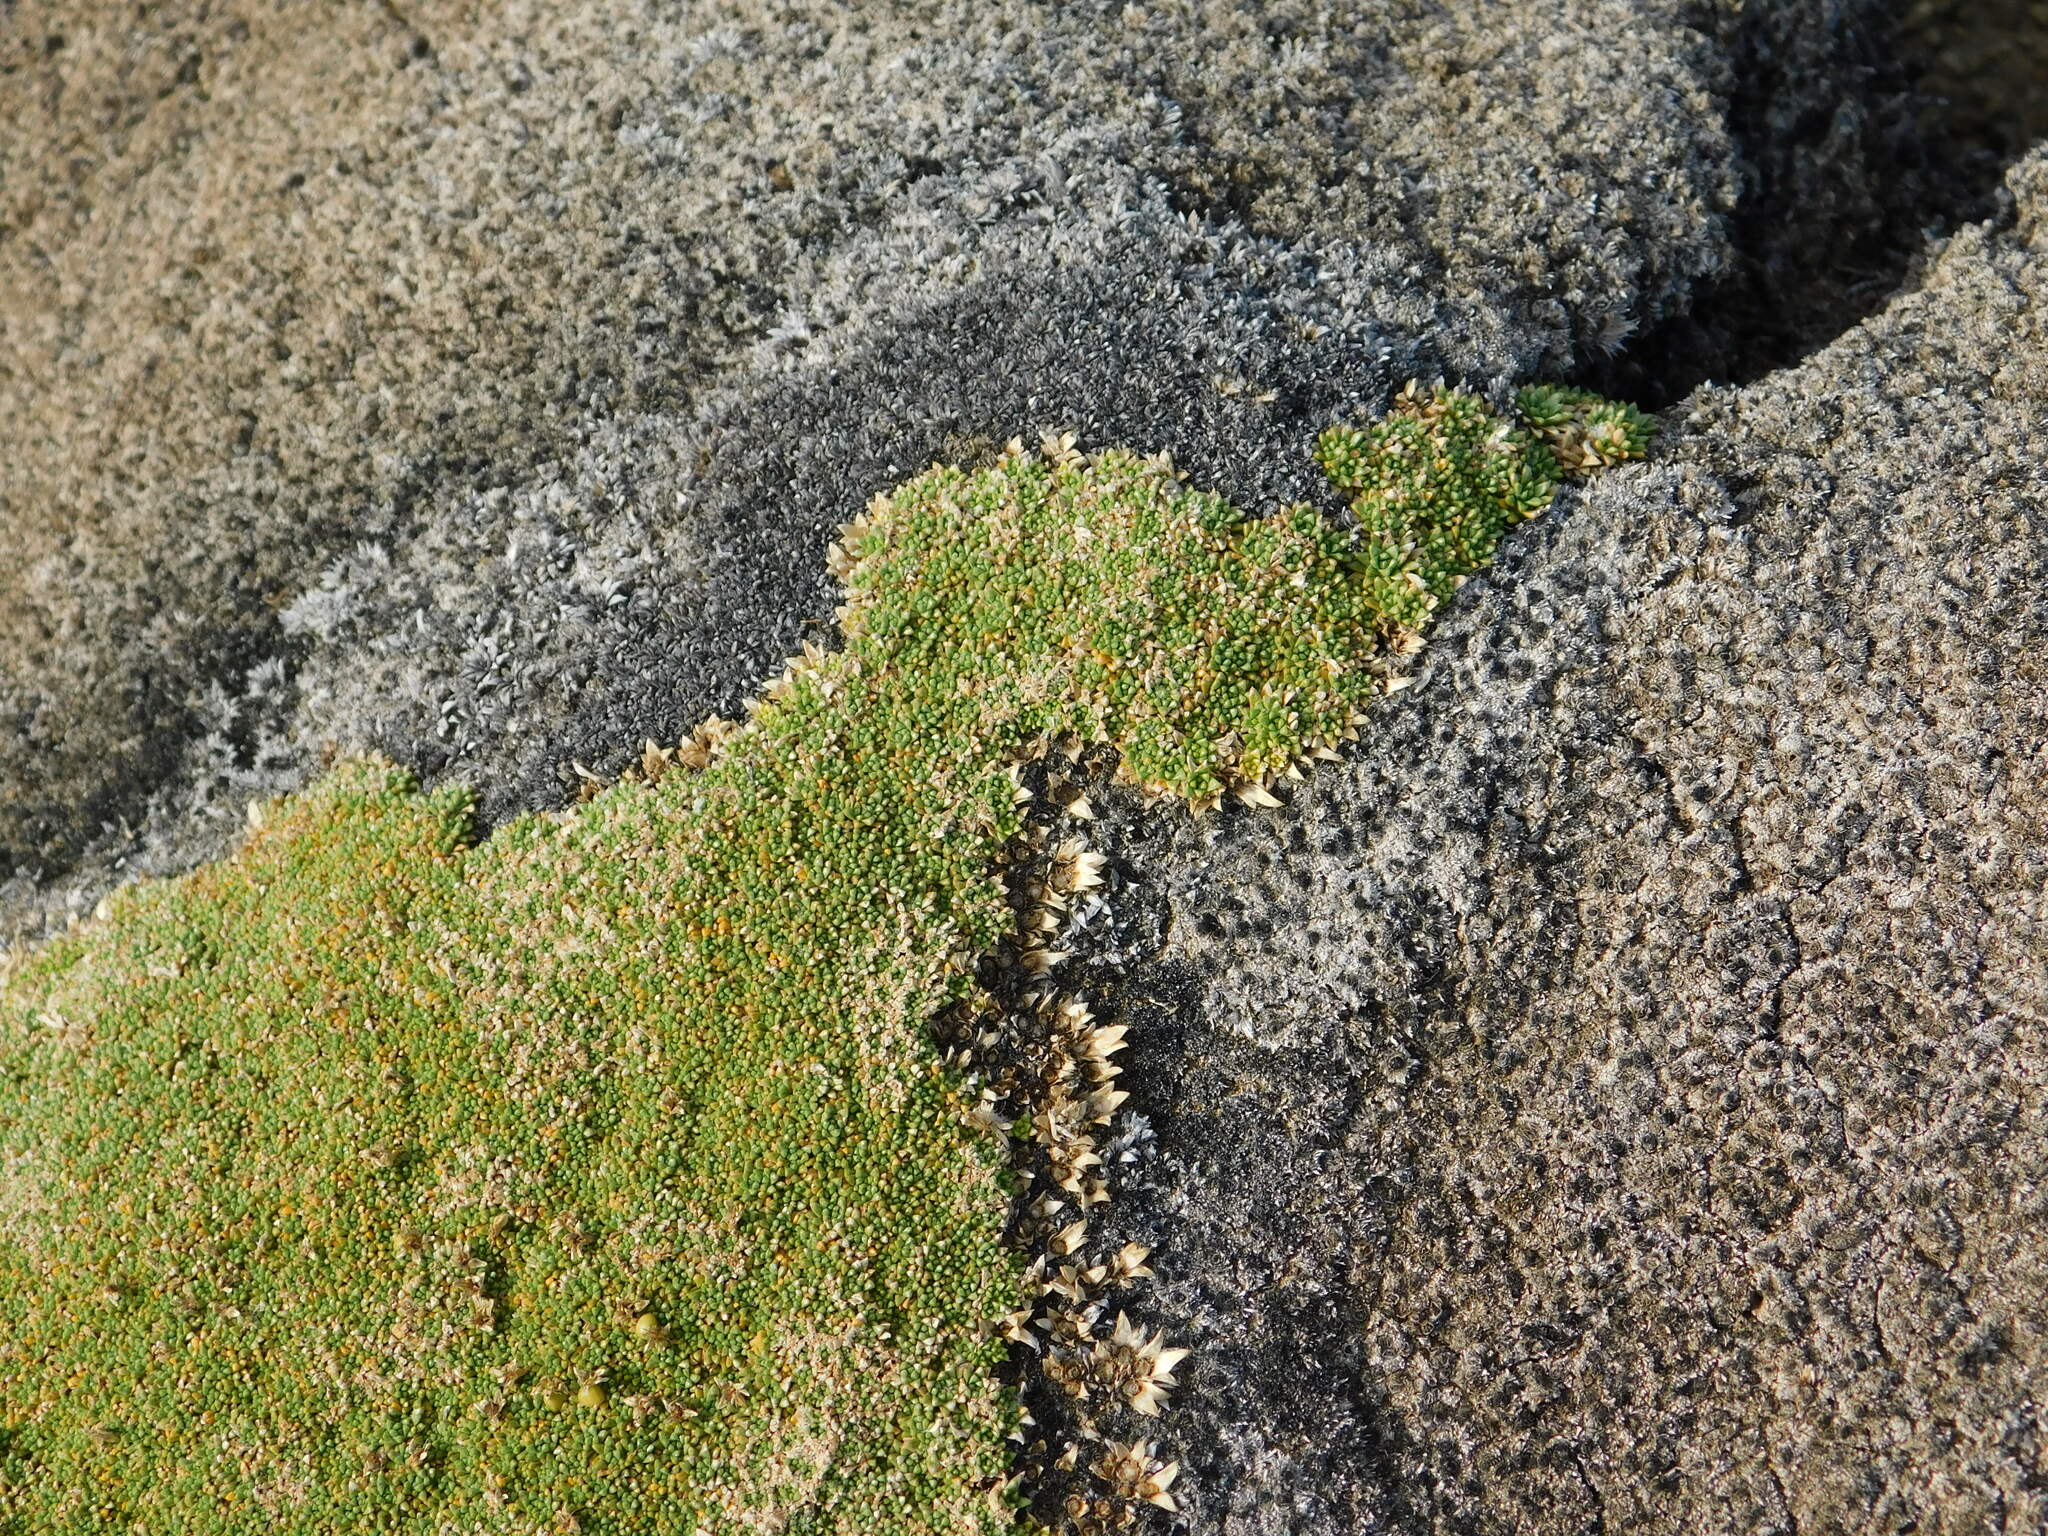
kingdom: Plantae
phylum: Tracheophyta
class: Magnoliopsida
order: Apiales
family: Apiaceae
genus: Azorella
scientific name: Azorella monantha
